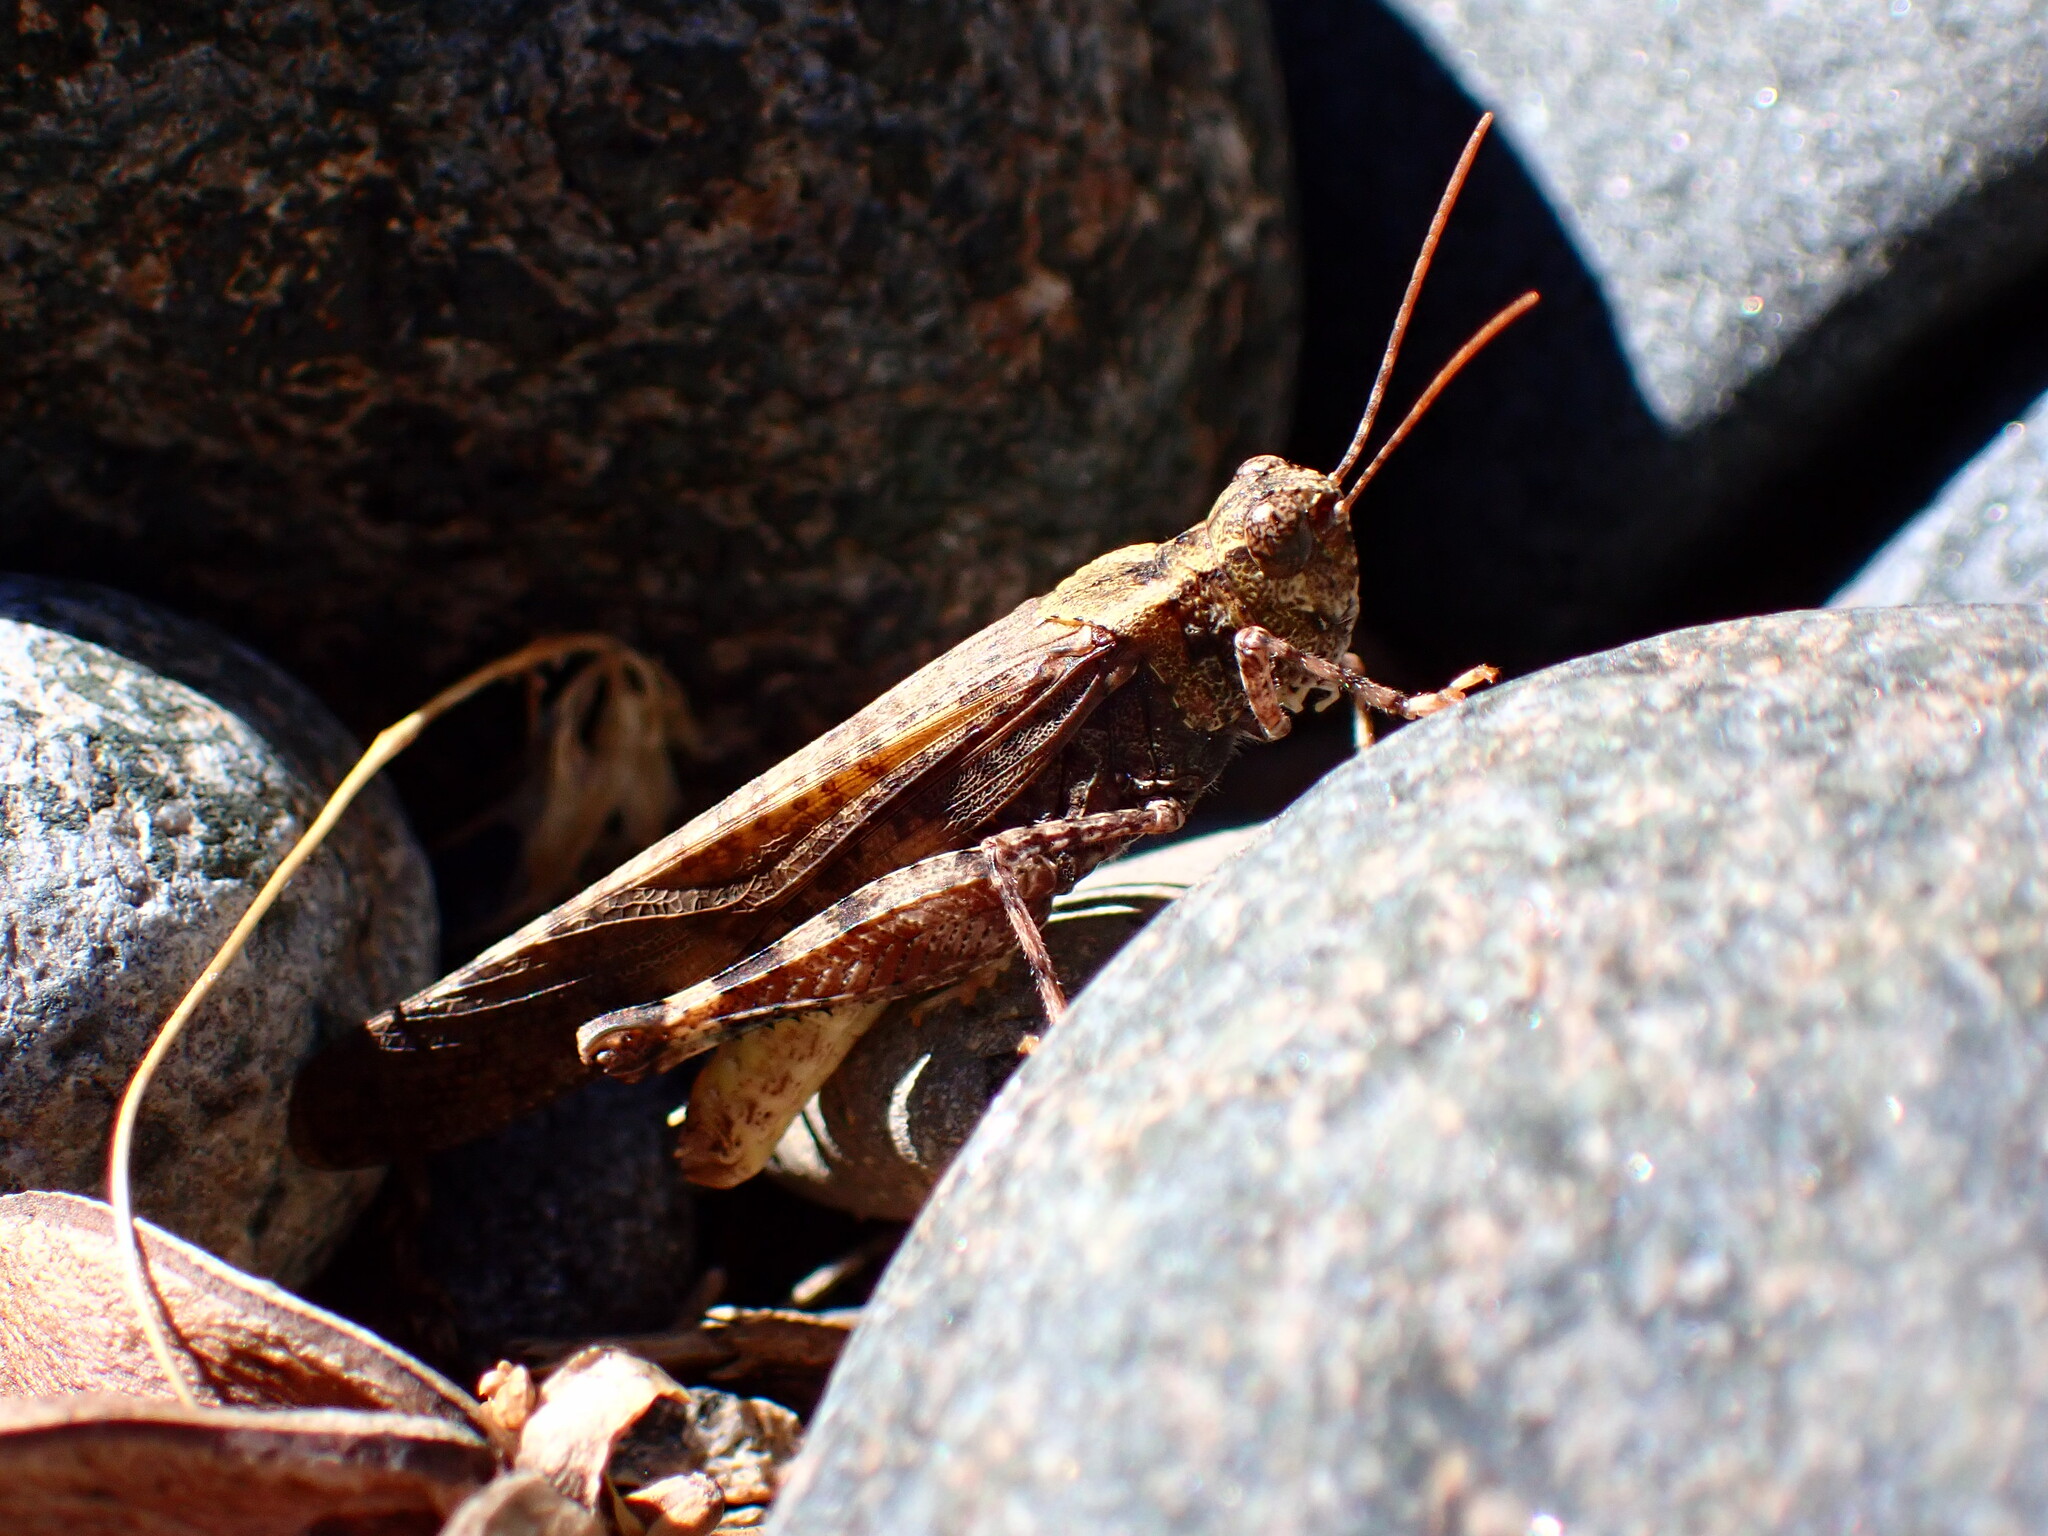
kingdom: Animalia
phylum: Arthropoda
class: Insecta
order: Orthoptera
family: Acrididae
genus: Trimerotropis
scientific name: Trimerotropis verruculata
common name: Crackling forest grasshopper
